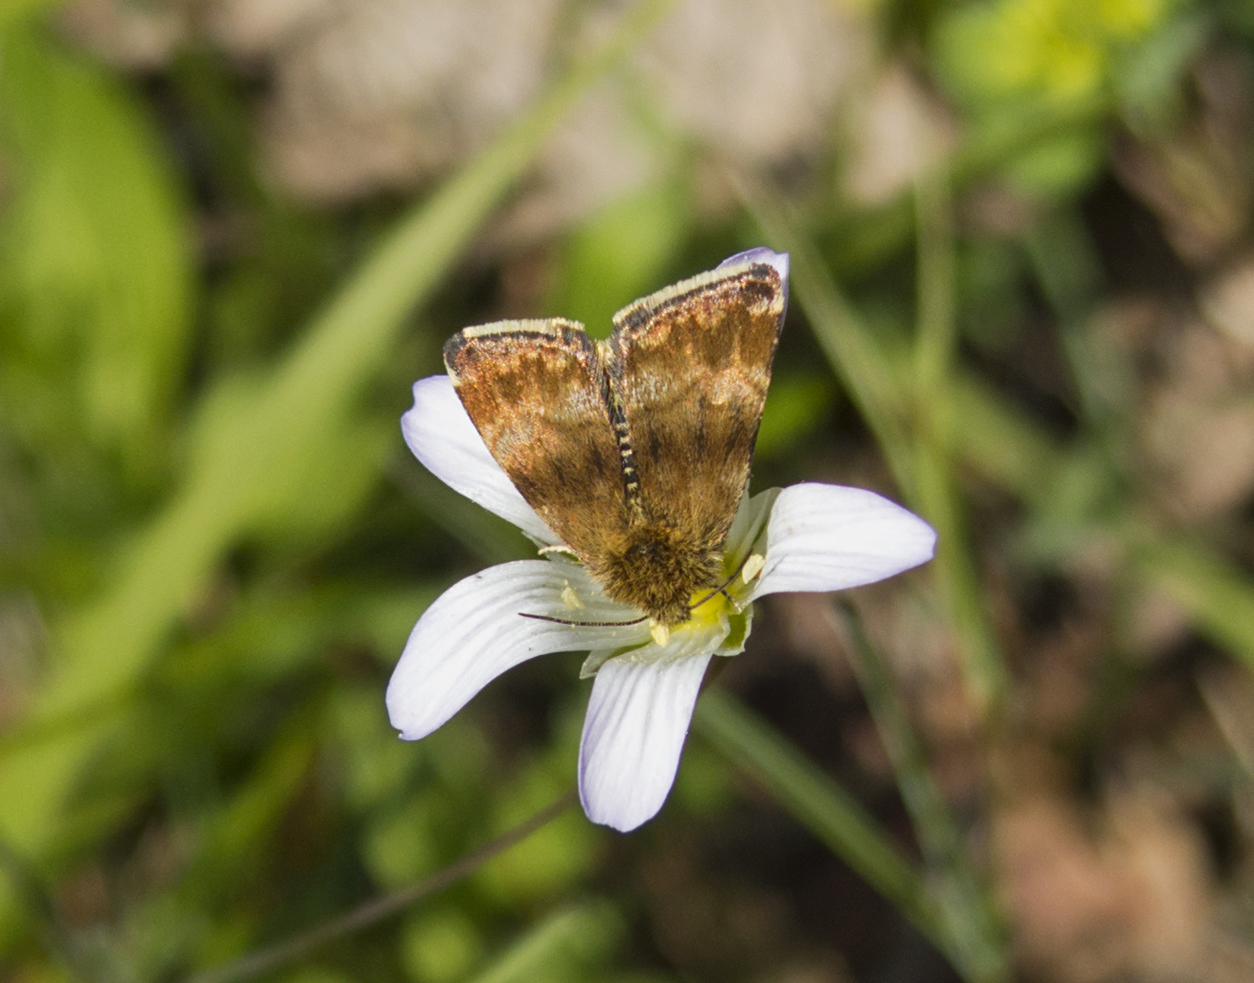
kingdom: Animalia
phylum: Arthropoda
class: Insecta
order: Lepidoptera
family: Noctuidae
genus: Panemeria
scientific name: Panemeria tenebrata
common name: Small yellow underwing
